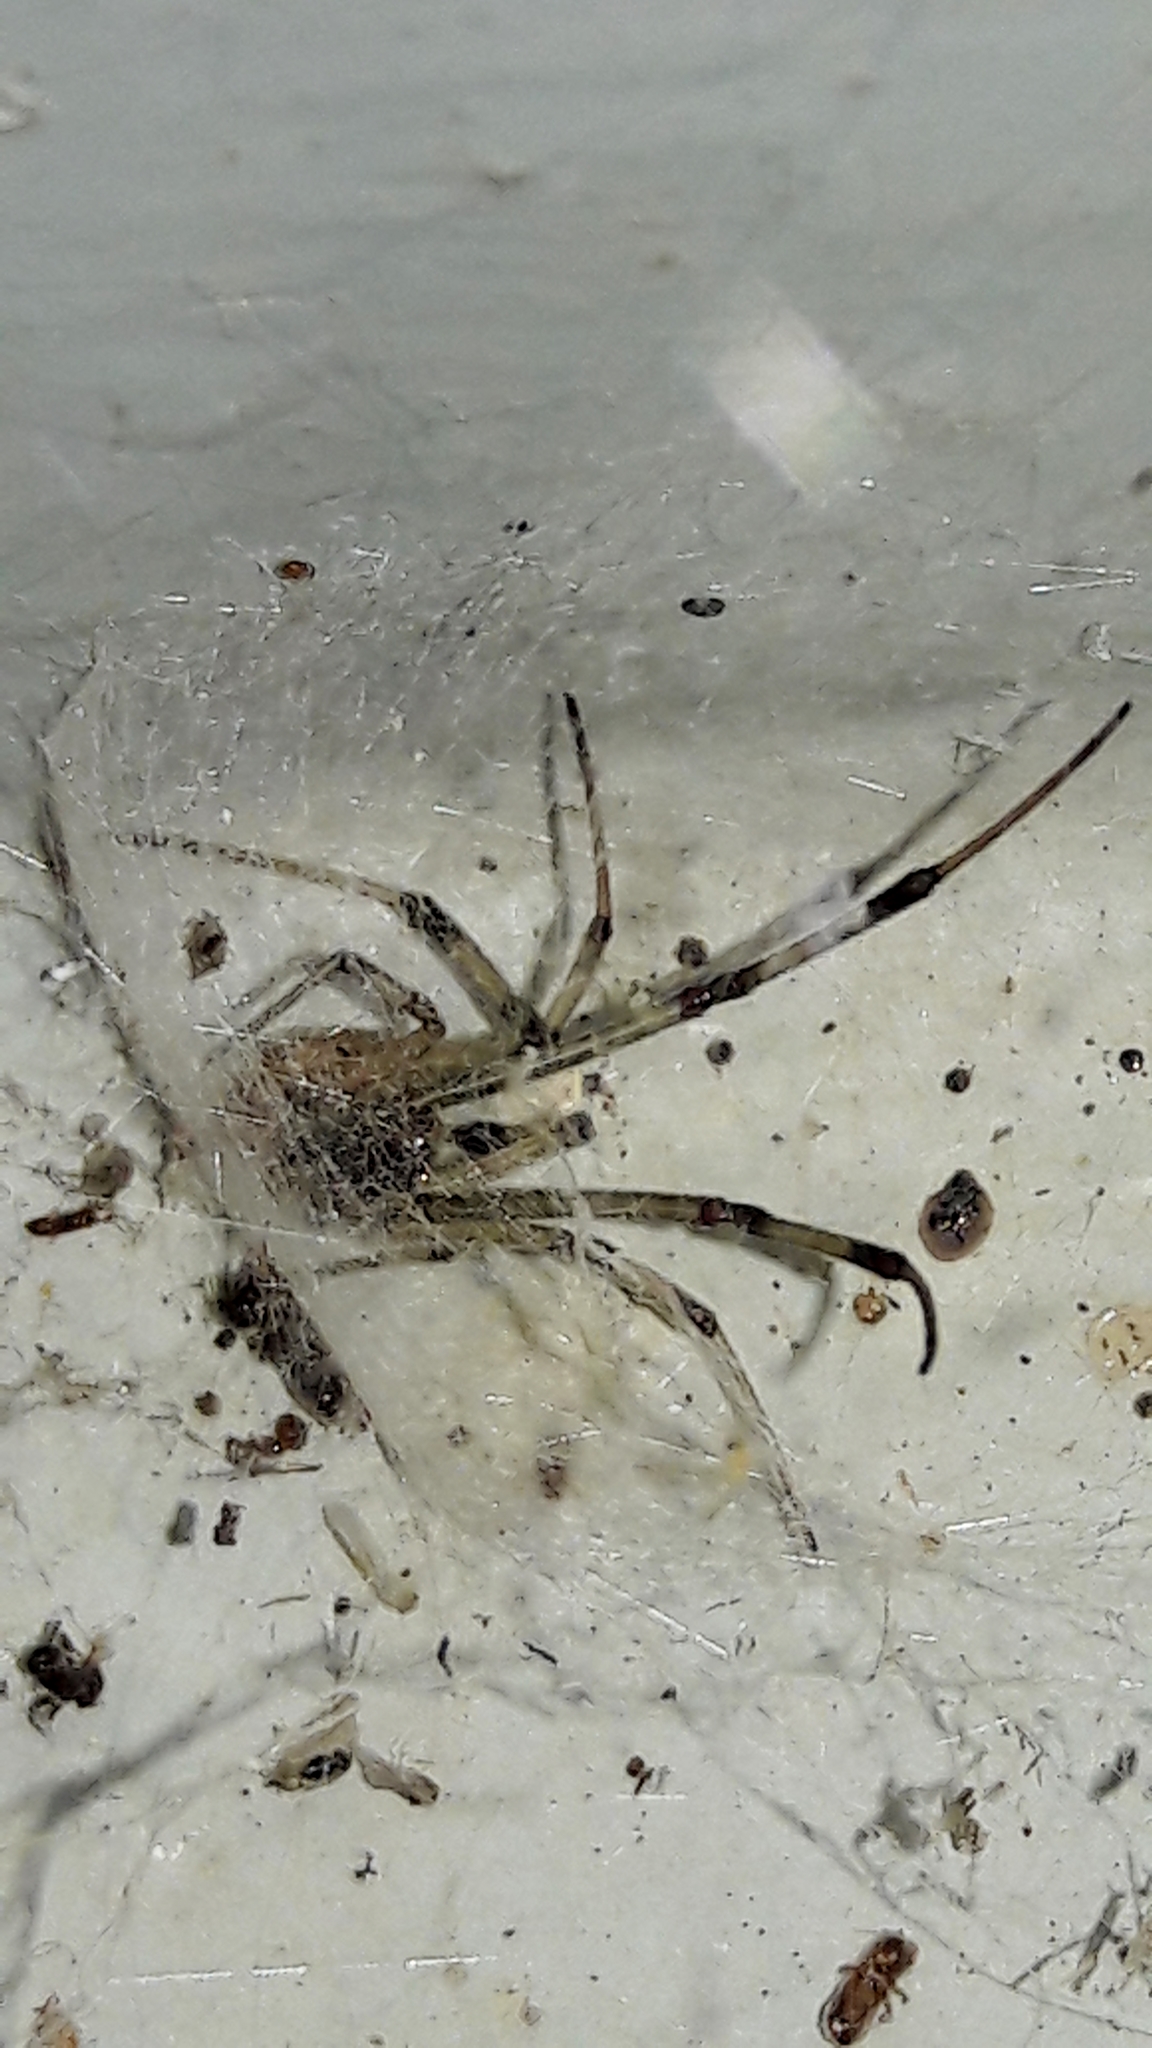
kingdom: Animalia
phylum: Arthropoda
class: Arachnida
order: Araneae
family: Theridiidae
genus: Latrodectus
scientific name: Latrodectus geometricus
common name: Brown widow spider
